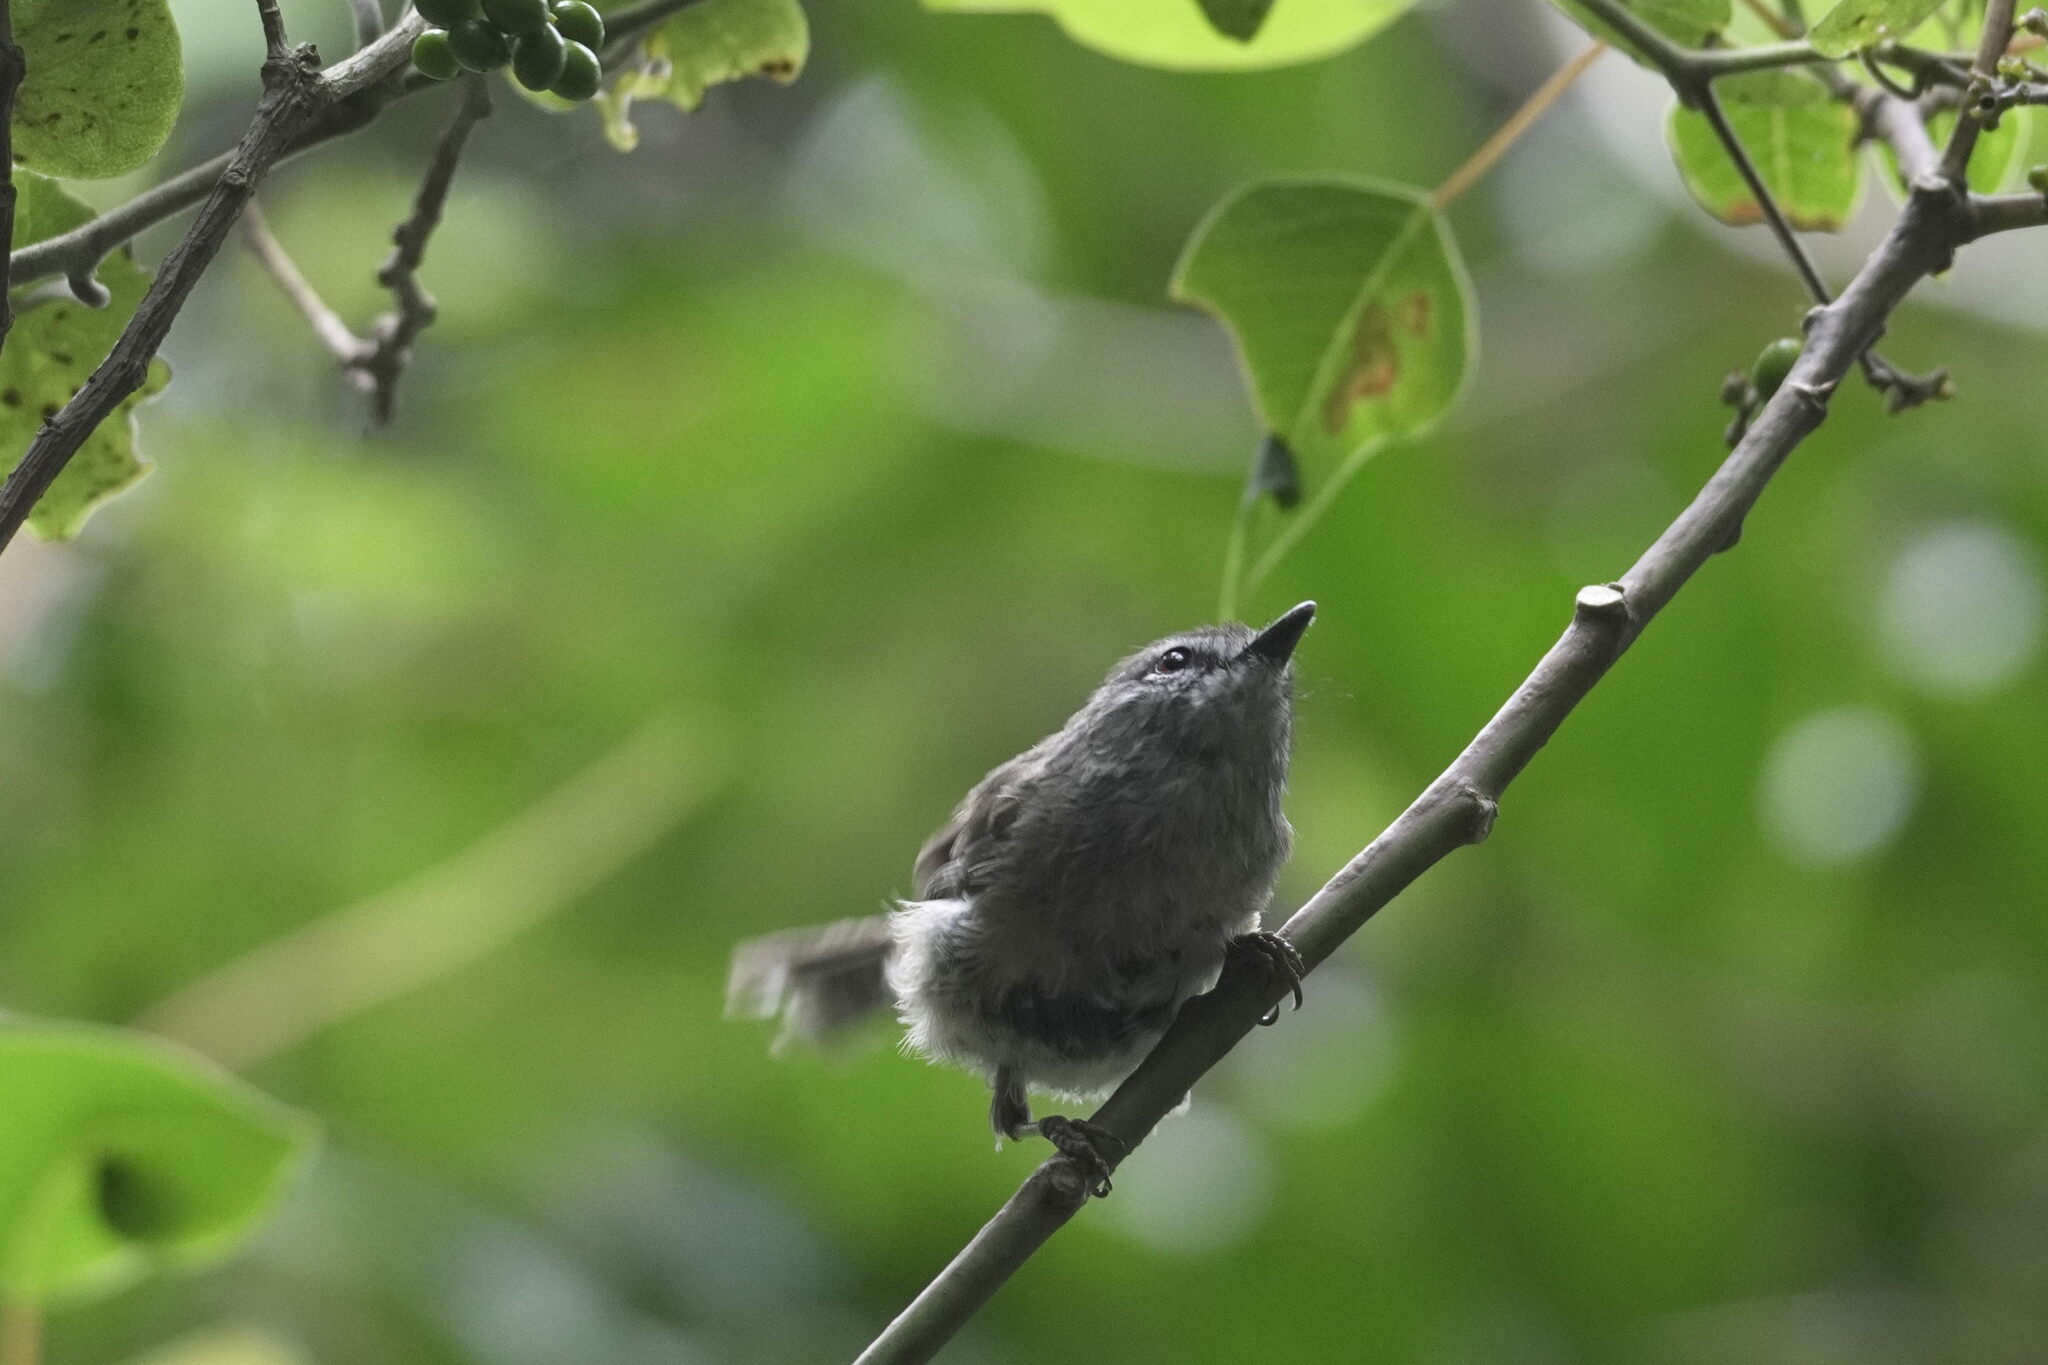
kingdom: Animalia
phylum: Chordata
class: Aves
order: Passeriformes
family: Acanthizidae
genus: Gerygone
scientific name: Gerygone mouki
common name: Brown gerygone
